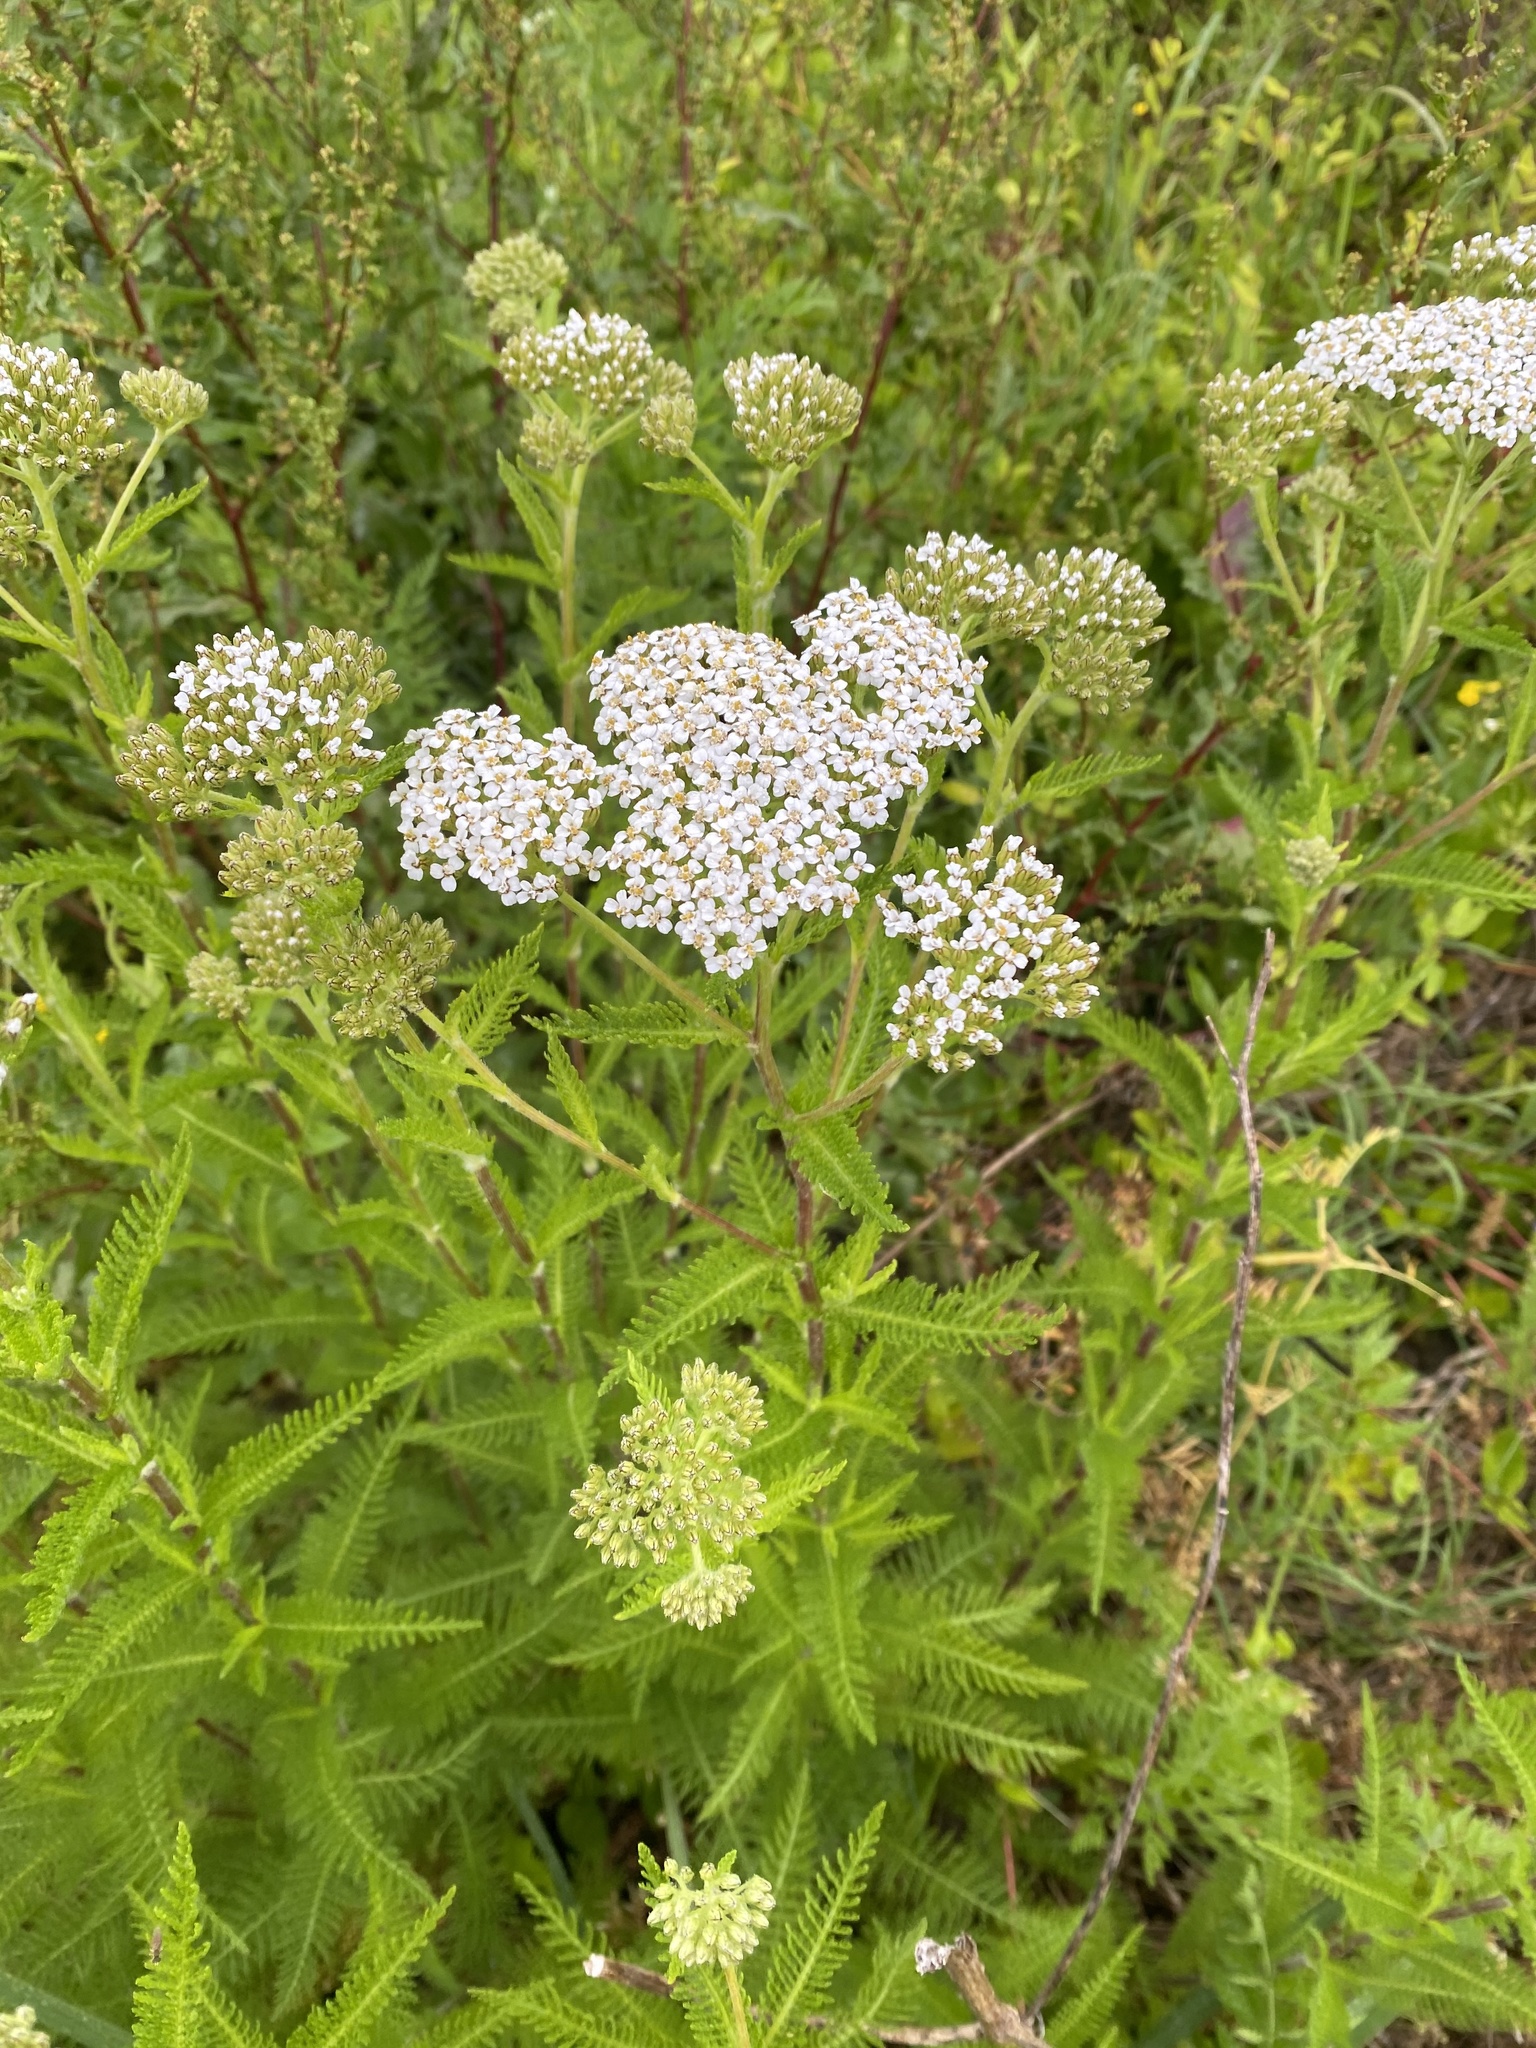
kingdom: Plantae
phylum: Tracheophyta
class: Magnoliopsida
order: Asterales
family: Asteraceae
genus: Achillea
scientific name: Achillea millefolium
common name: Yarrow
